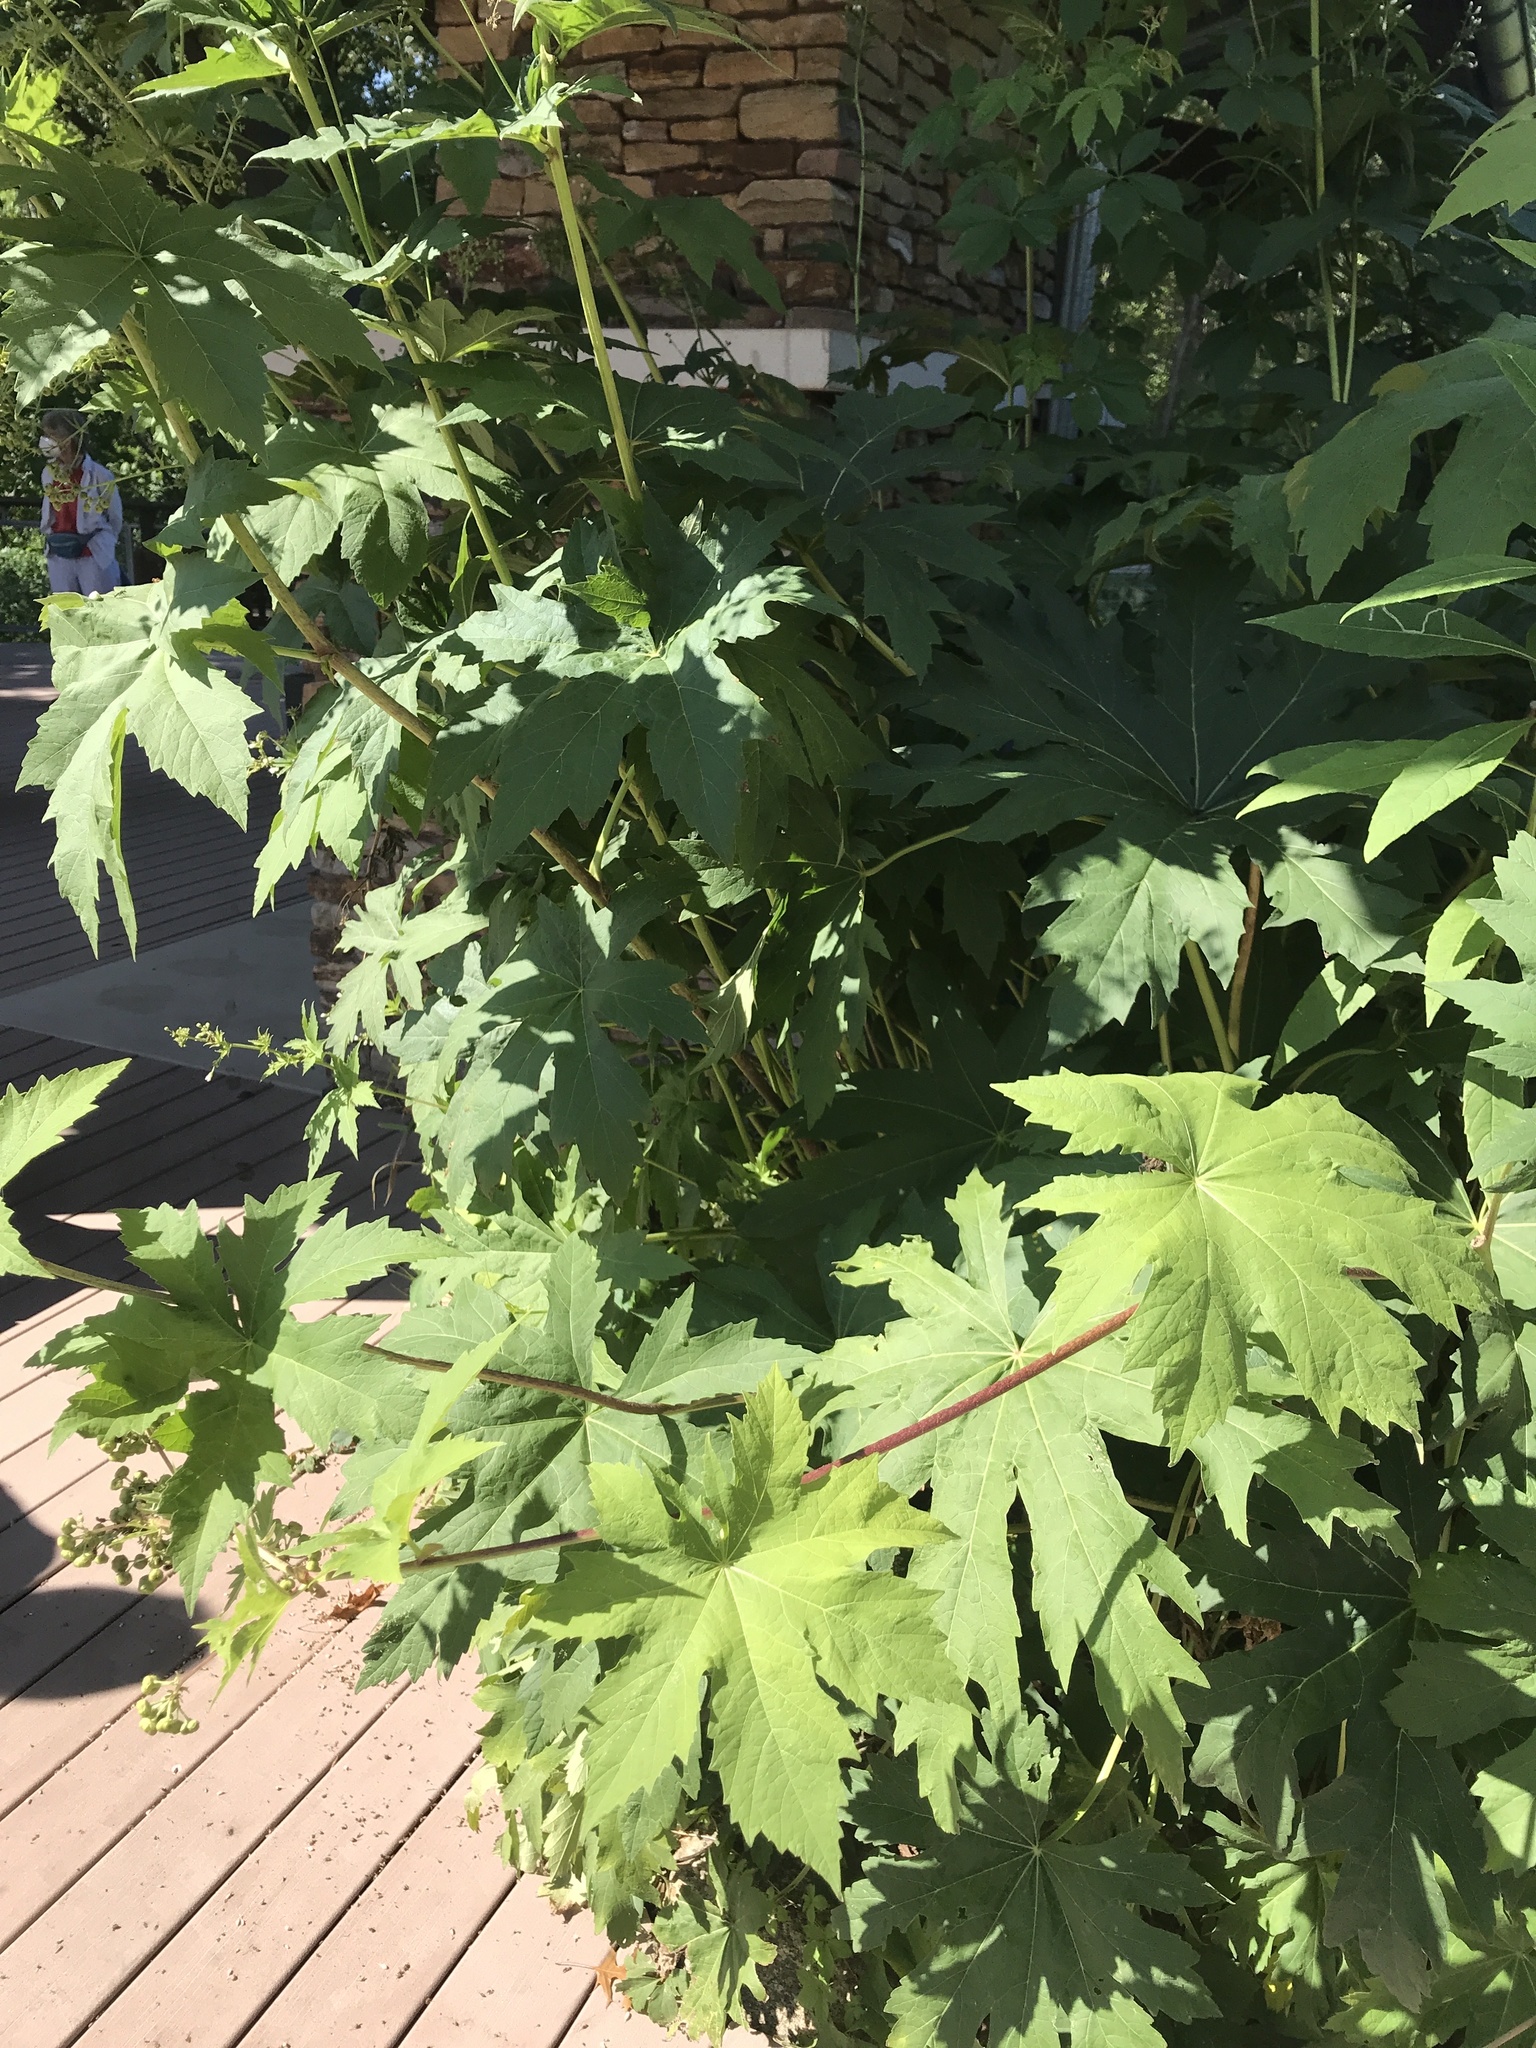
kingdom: Plantae
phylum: Tracheophyta
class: Magnoliopsida
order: Malvales
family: Malvaceae
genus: Napaea
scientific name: Napaea dioica
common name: Glade-mallow
